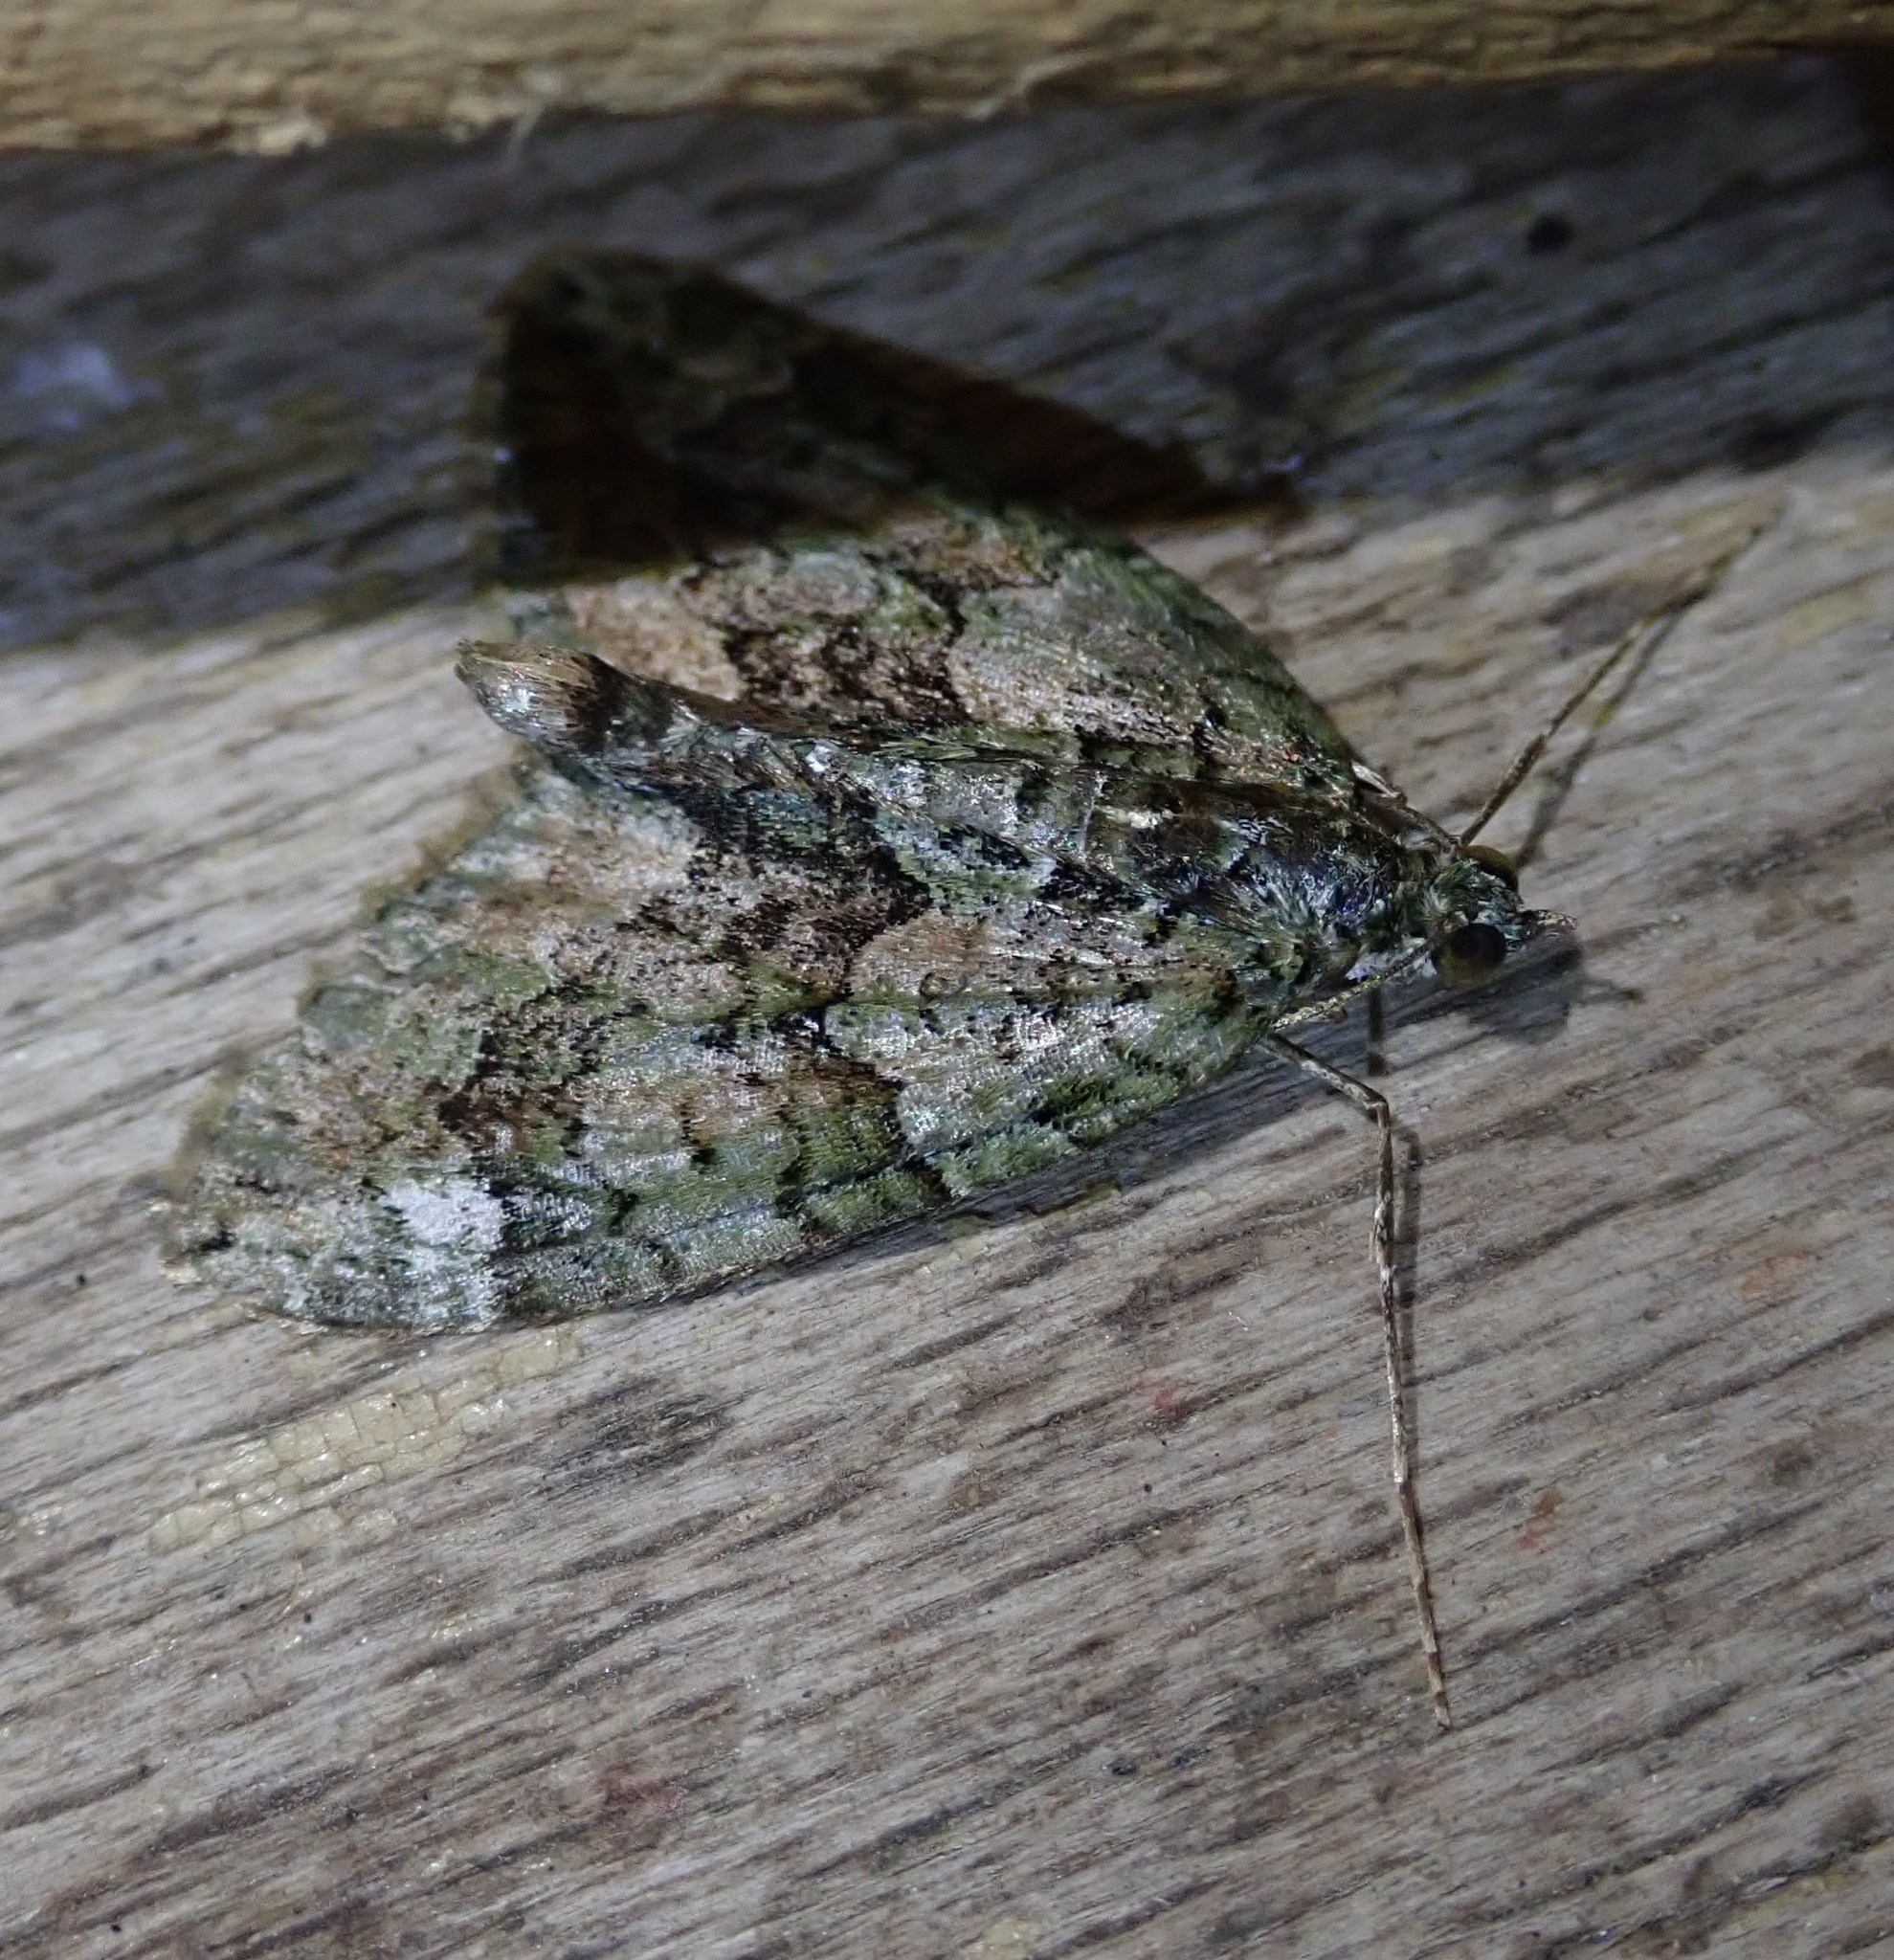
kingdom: Animalia
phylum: Arthropoda
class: Insecta
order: Lepidoptera
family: Geometridae
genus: Chloroclysta
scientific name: Chloroclysta siterata
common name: Red-green carpet
